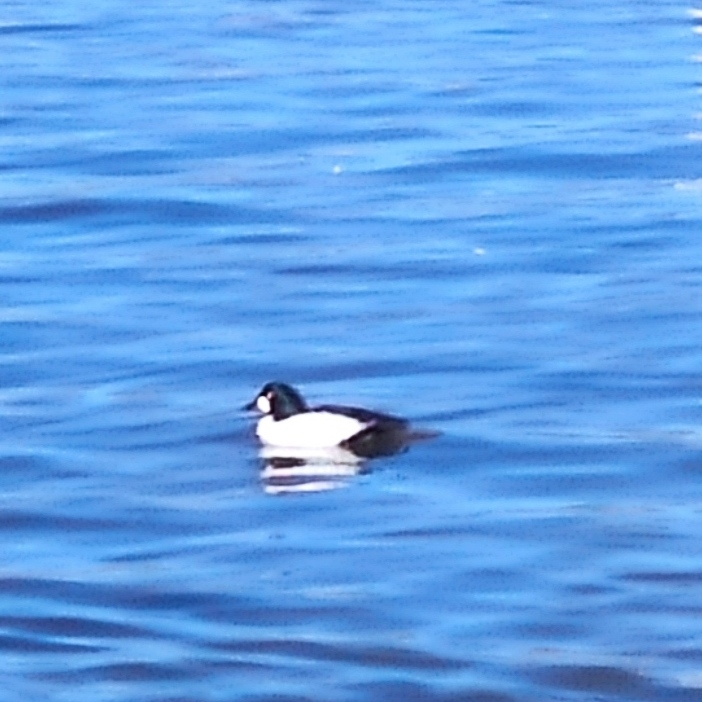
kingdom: Animalia
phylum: Chordata
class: Aves
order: Anseriformes
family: Anatidae
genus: Bucephala
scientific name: Bucephala clangula
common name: Common goldeneye
